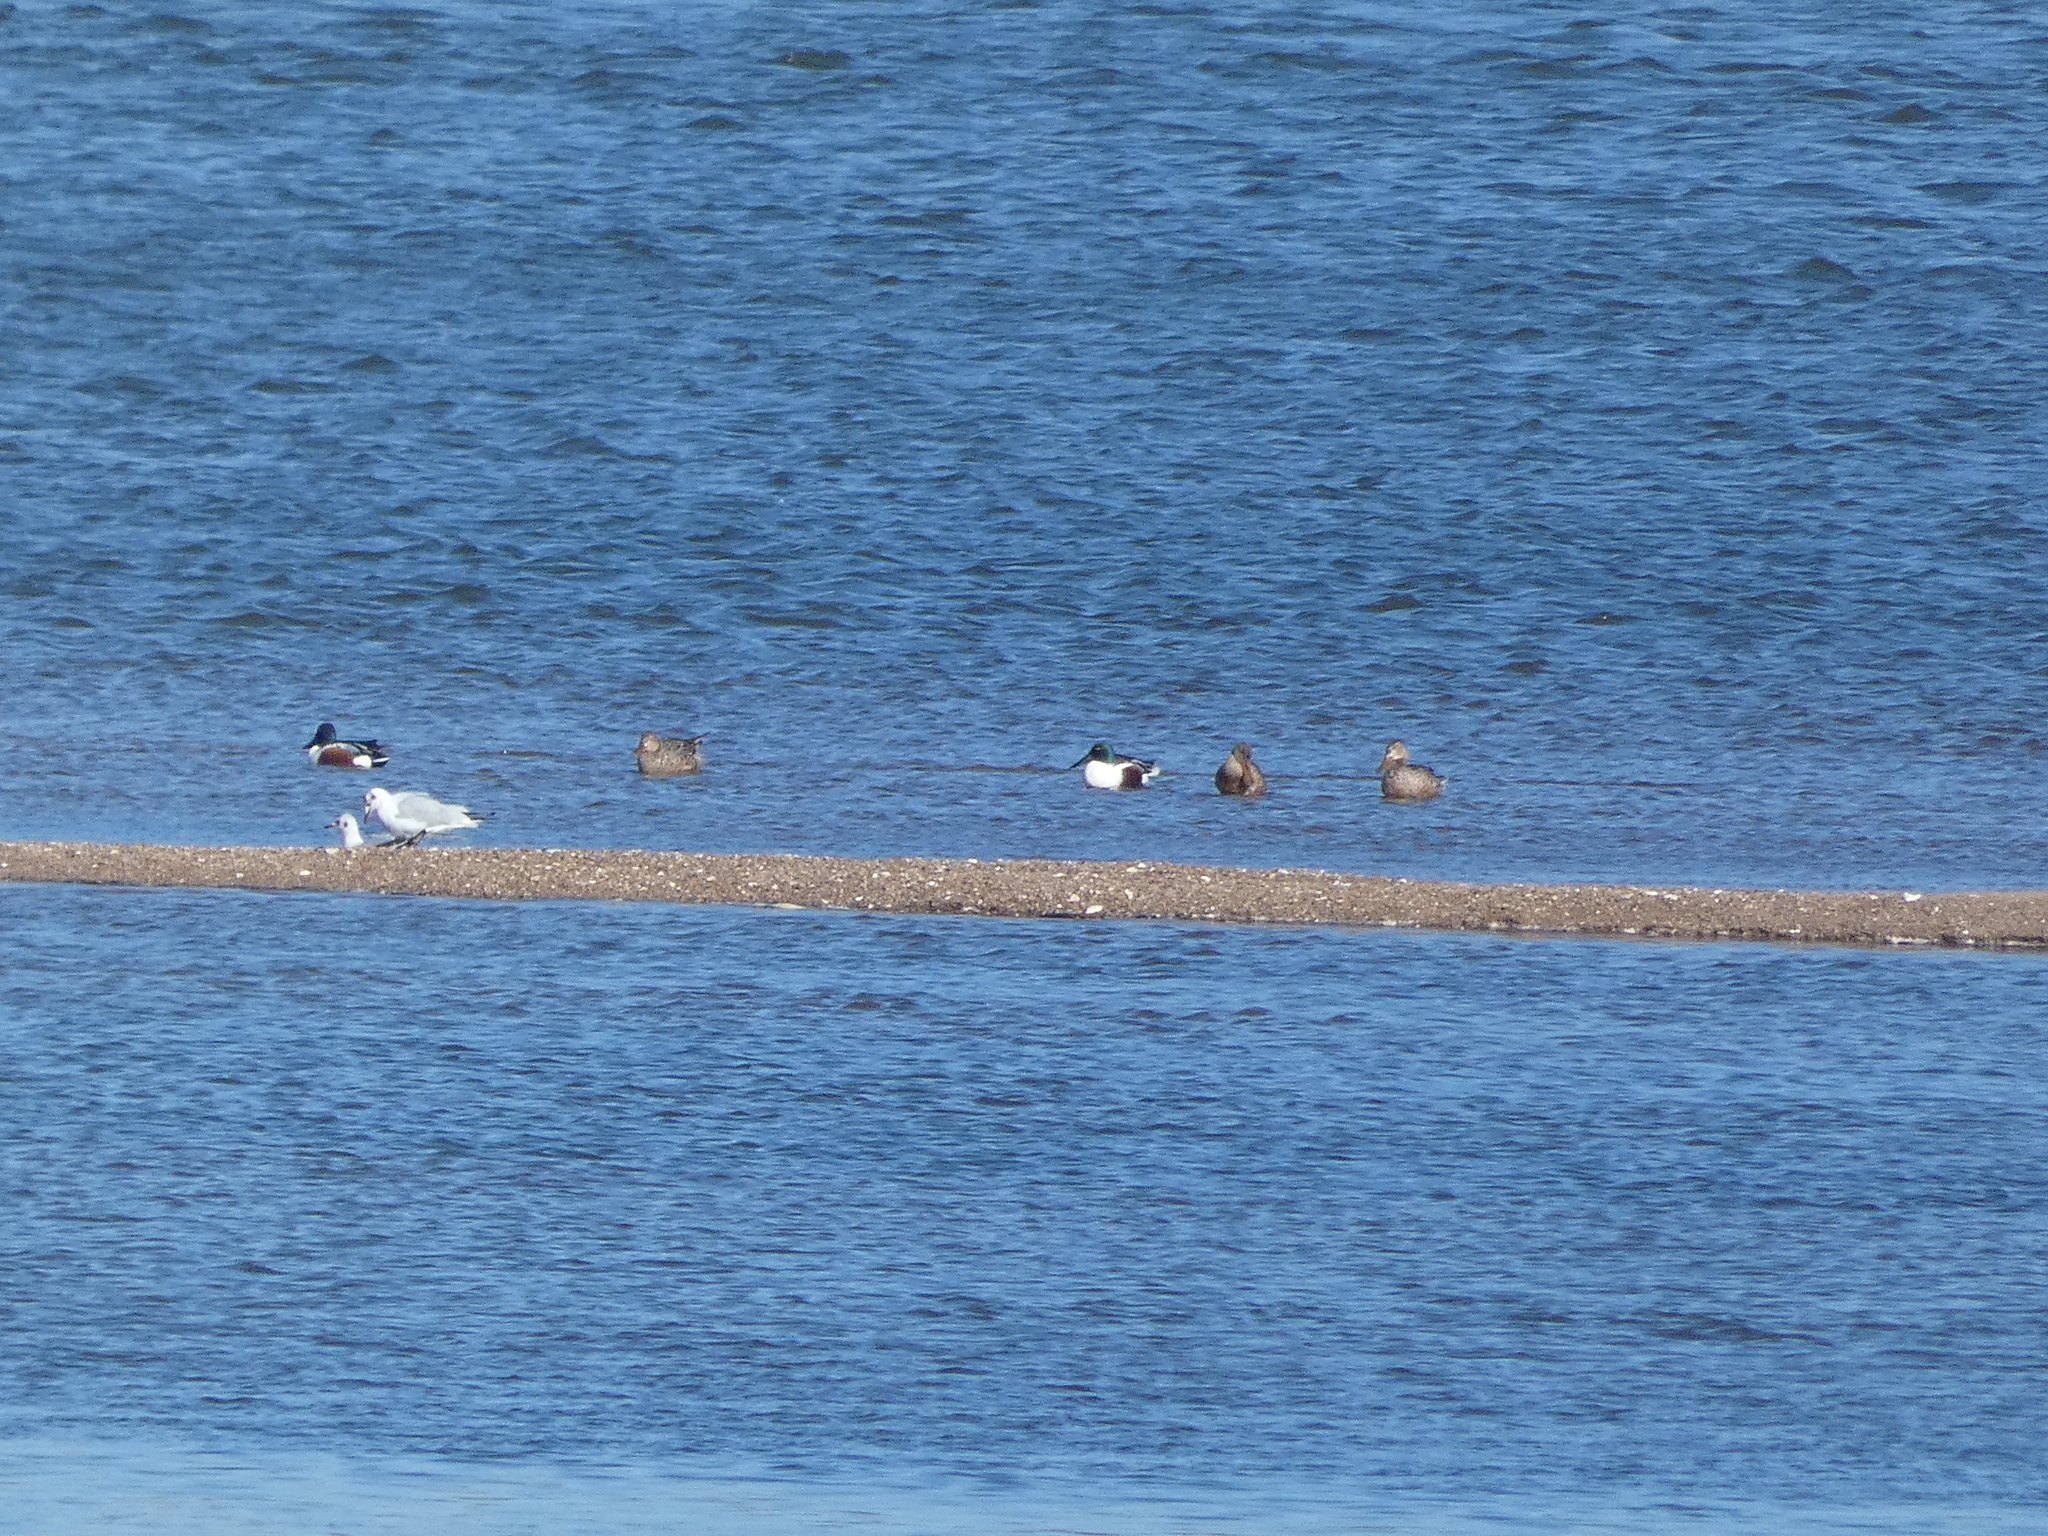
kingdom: Animalia
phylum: Chordata
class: Aves
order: Anseriformes
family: Anatidae
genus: Spatula
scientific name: Spatula clypeata
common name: Northern shoveler
